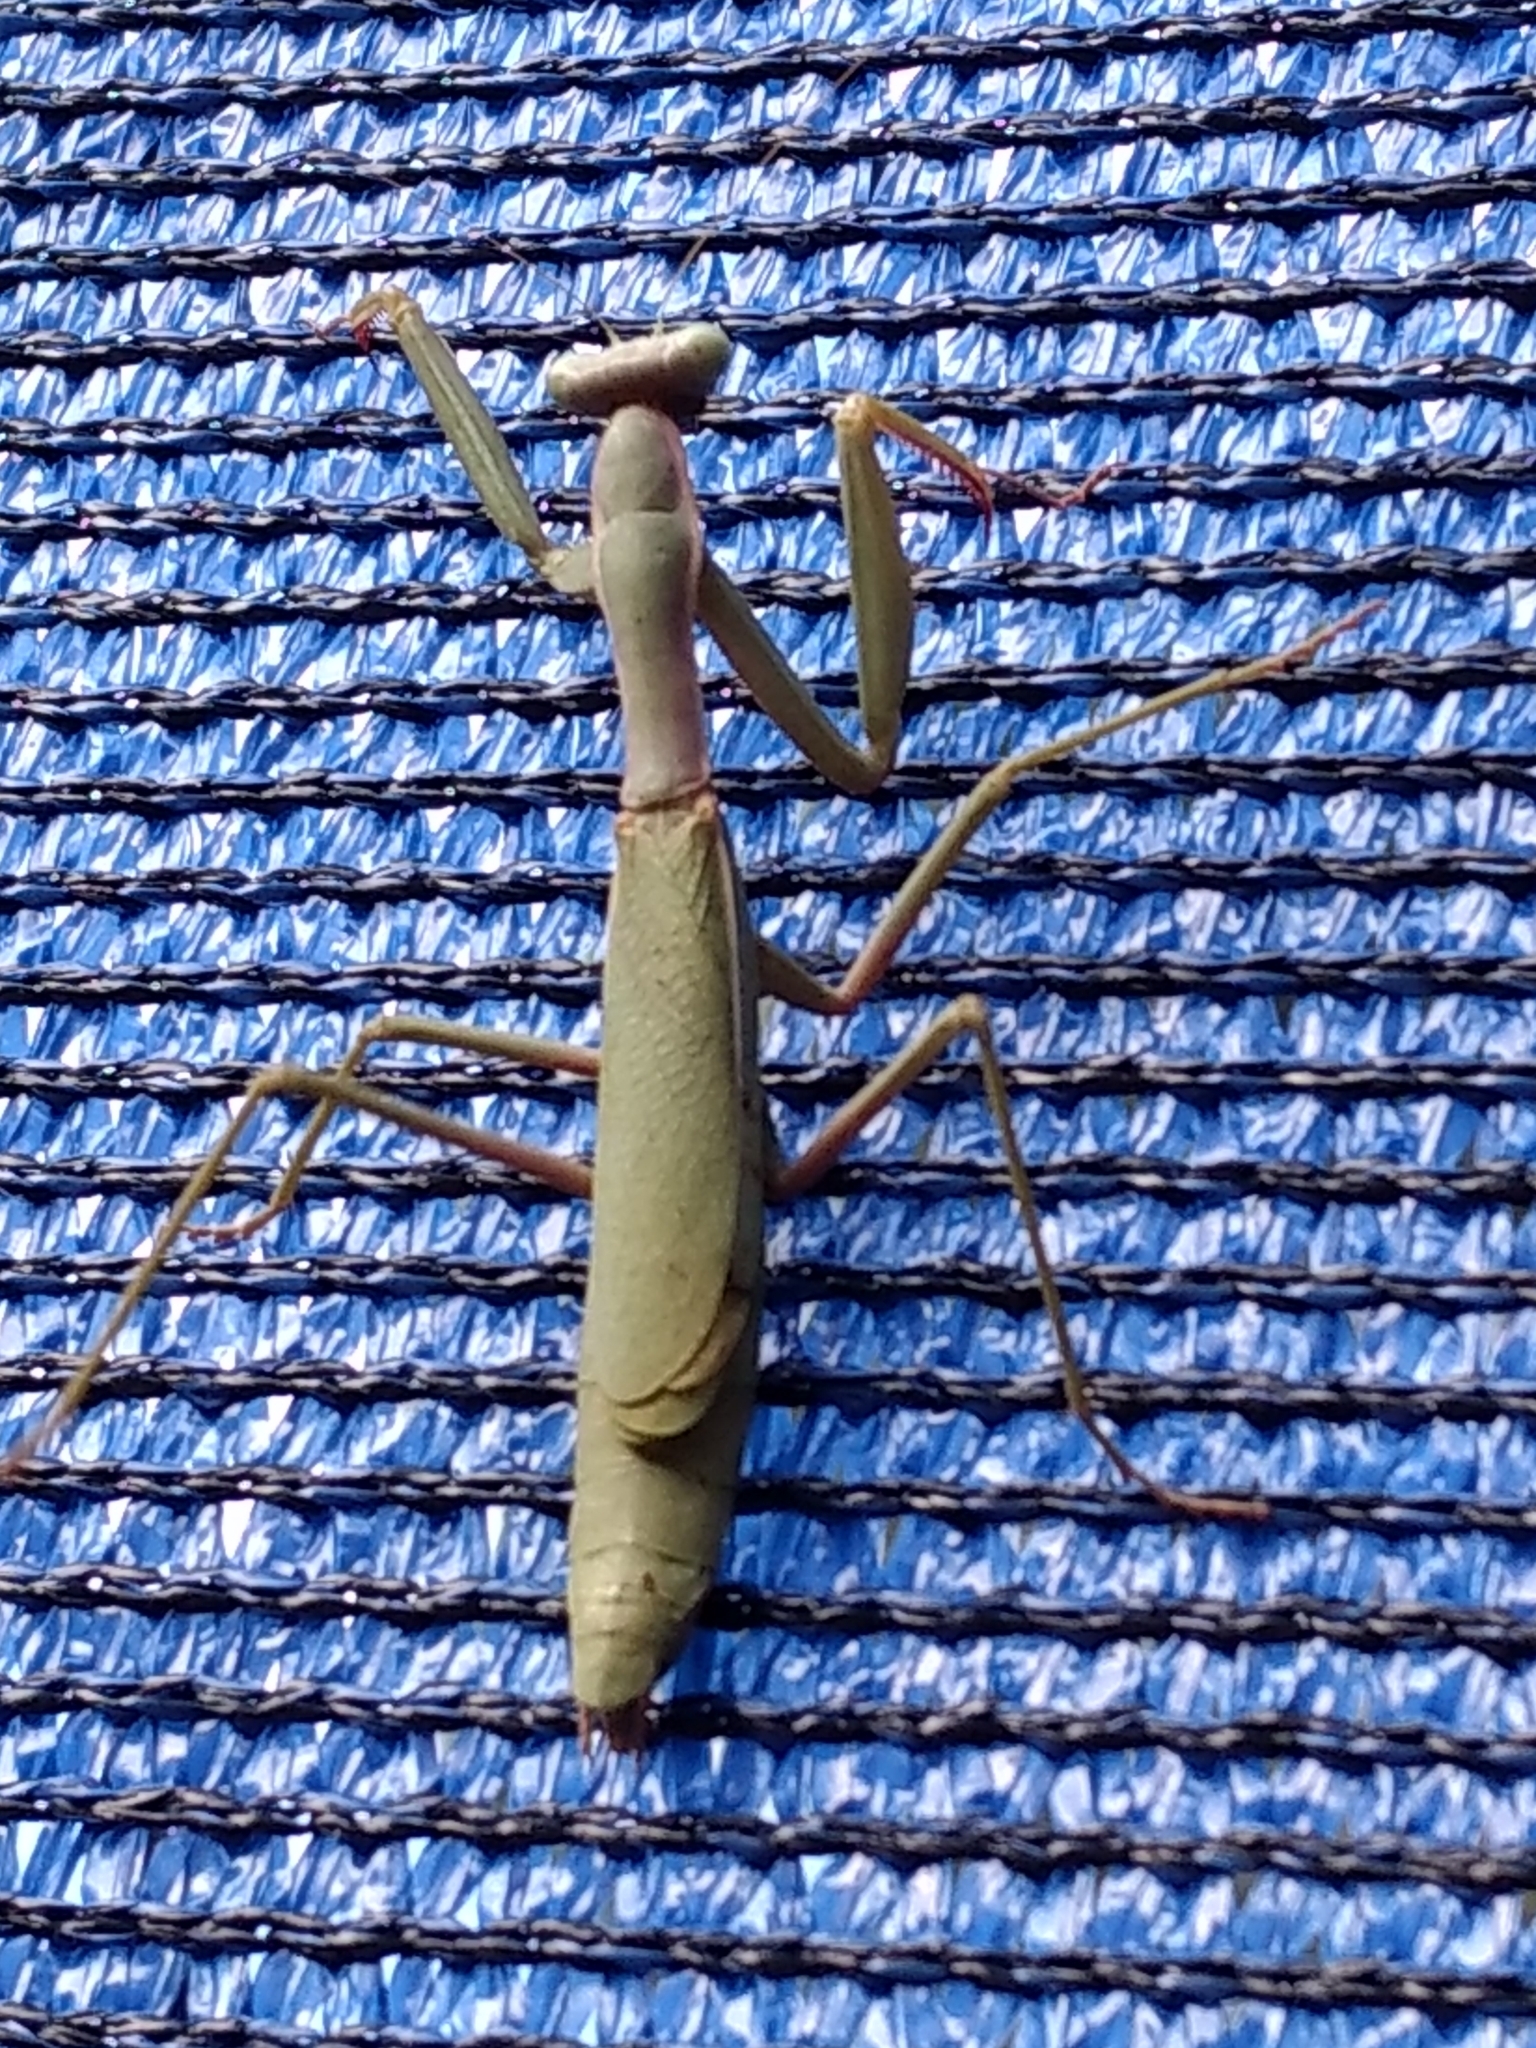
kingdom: Animalia
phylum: Arthropoda
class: Insecta
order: Mantodea
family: Eremiaphilidae
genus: Iris
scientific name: Iris oratoria
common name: Mediterranean mantis
